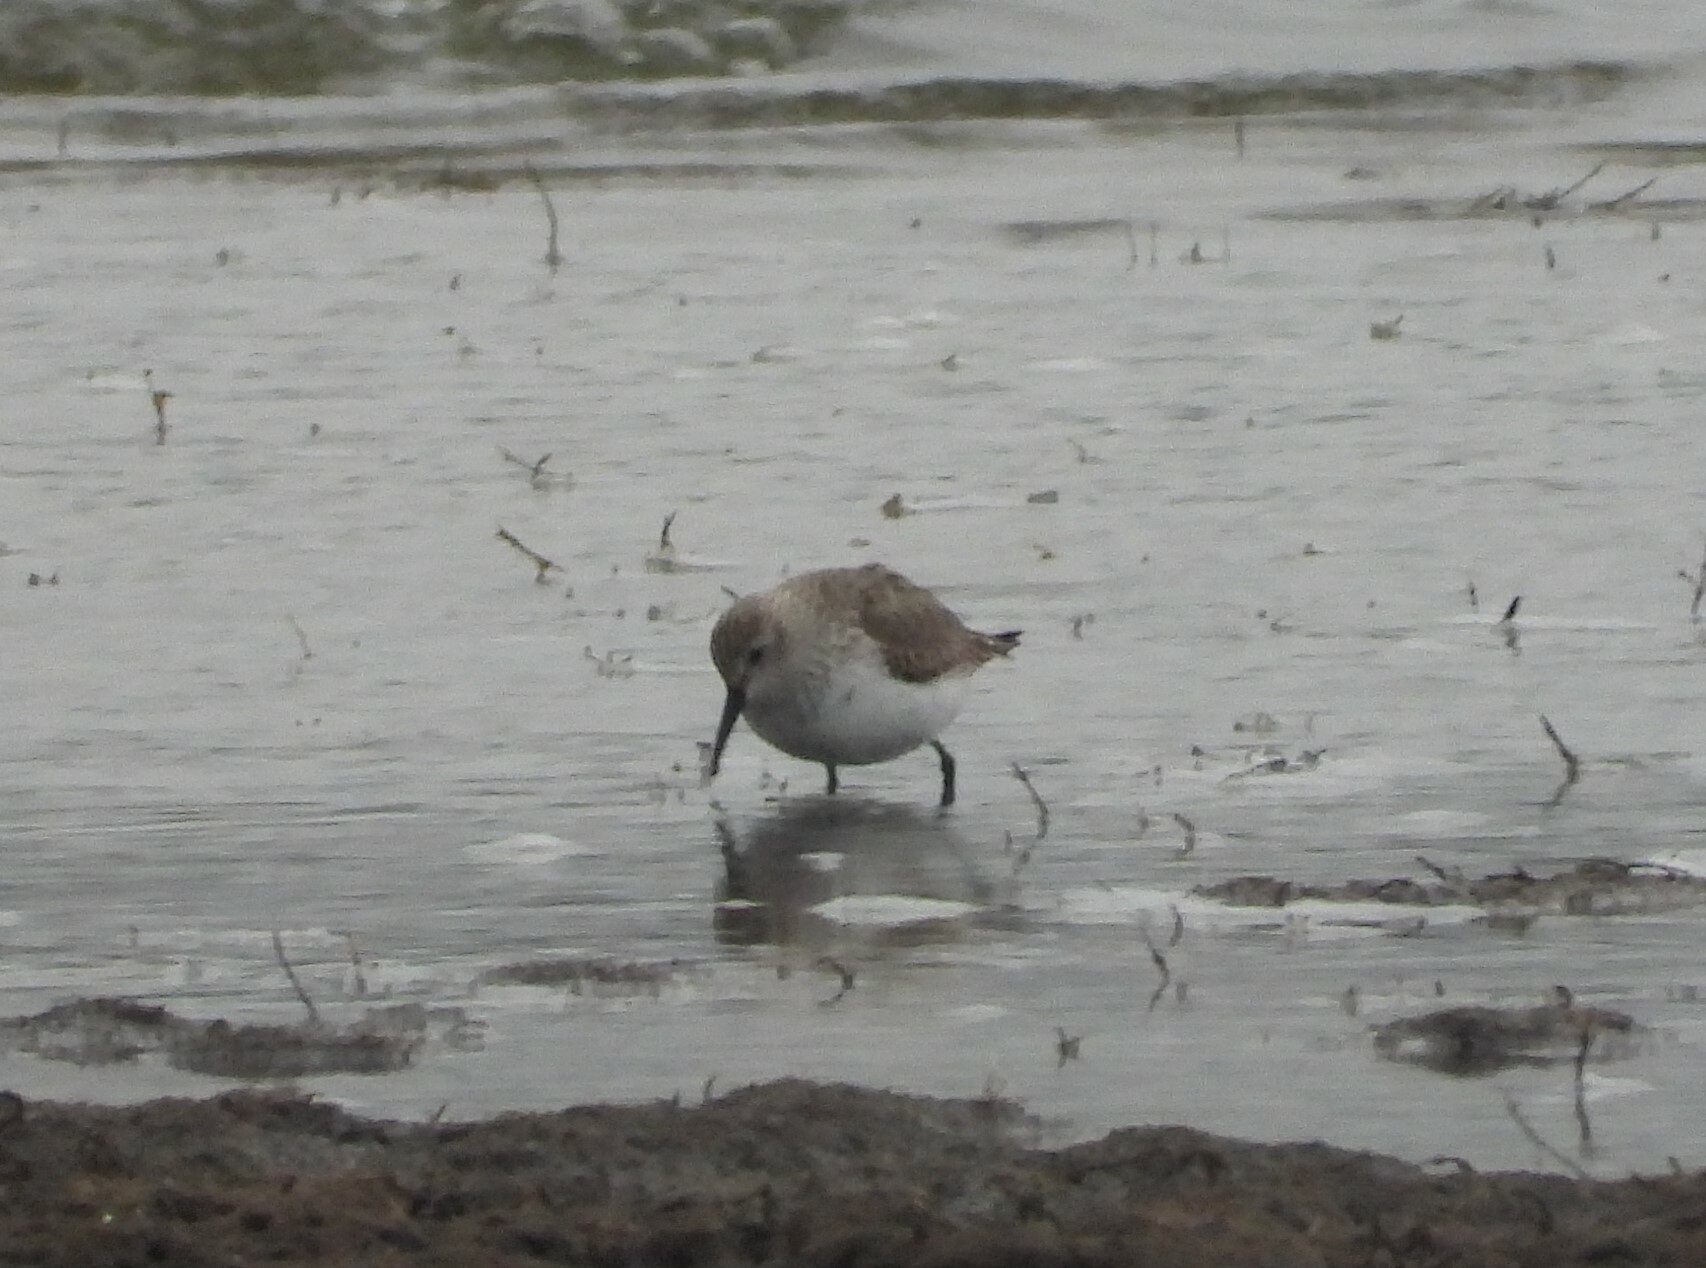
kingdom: Animalia
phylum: Chordata
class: Aves
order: Charadriiformes
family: Scolopacidae
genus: Calidris
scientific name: Calidris alpina
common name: Dunlin
